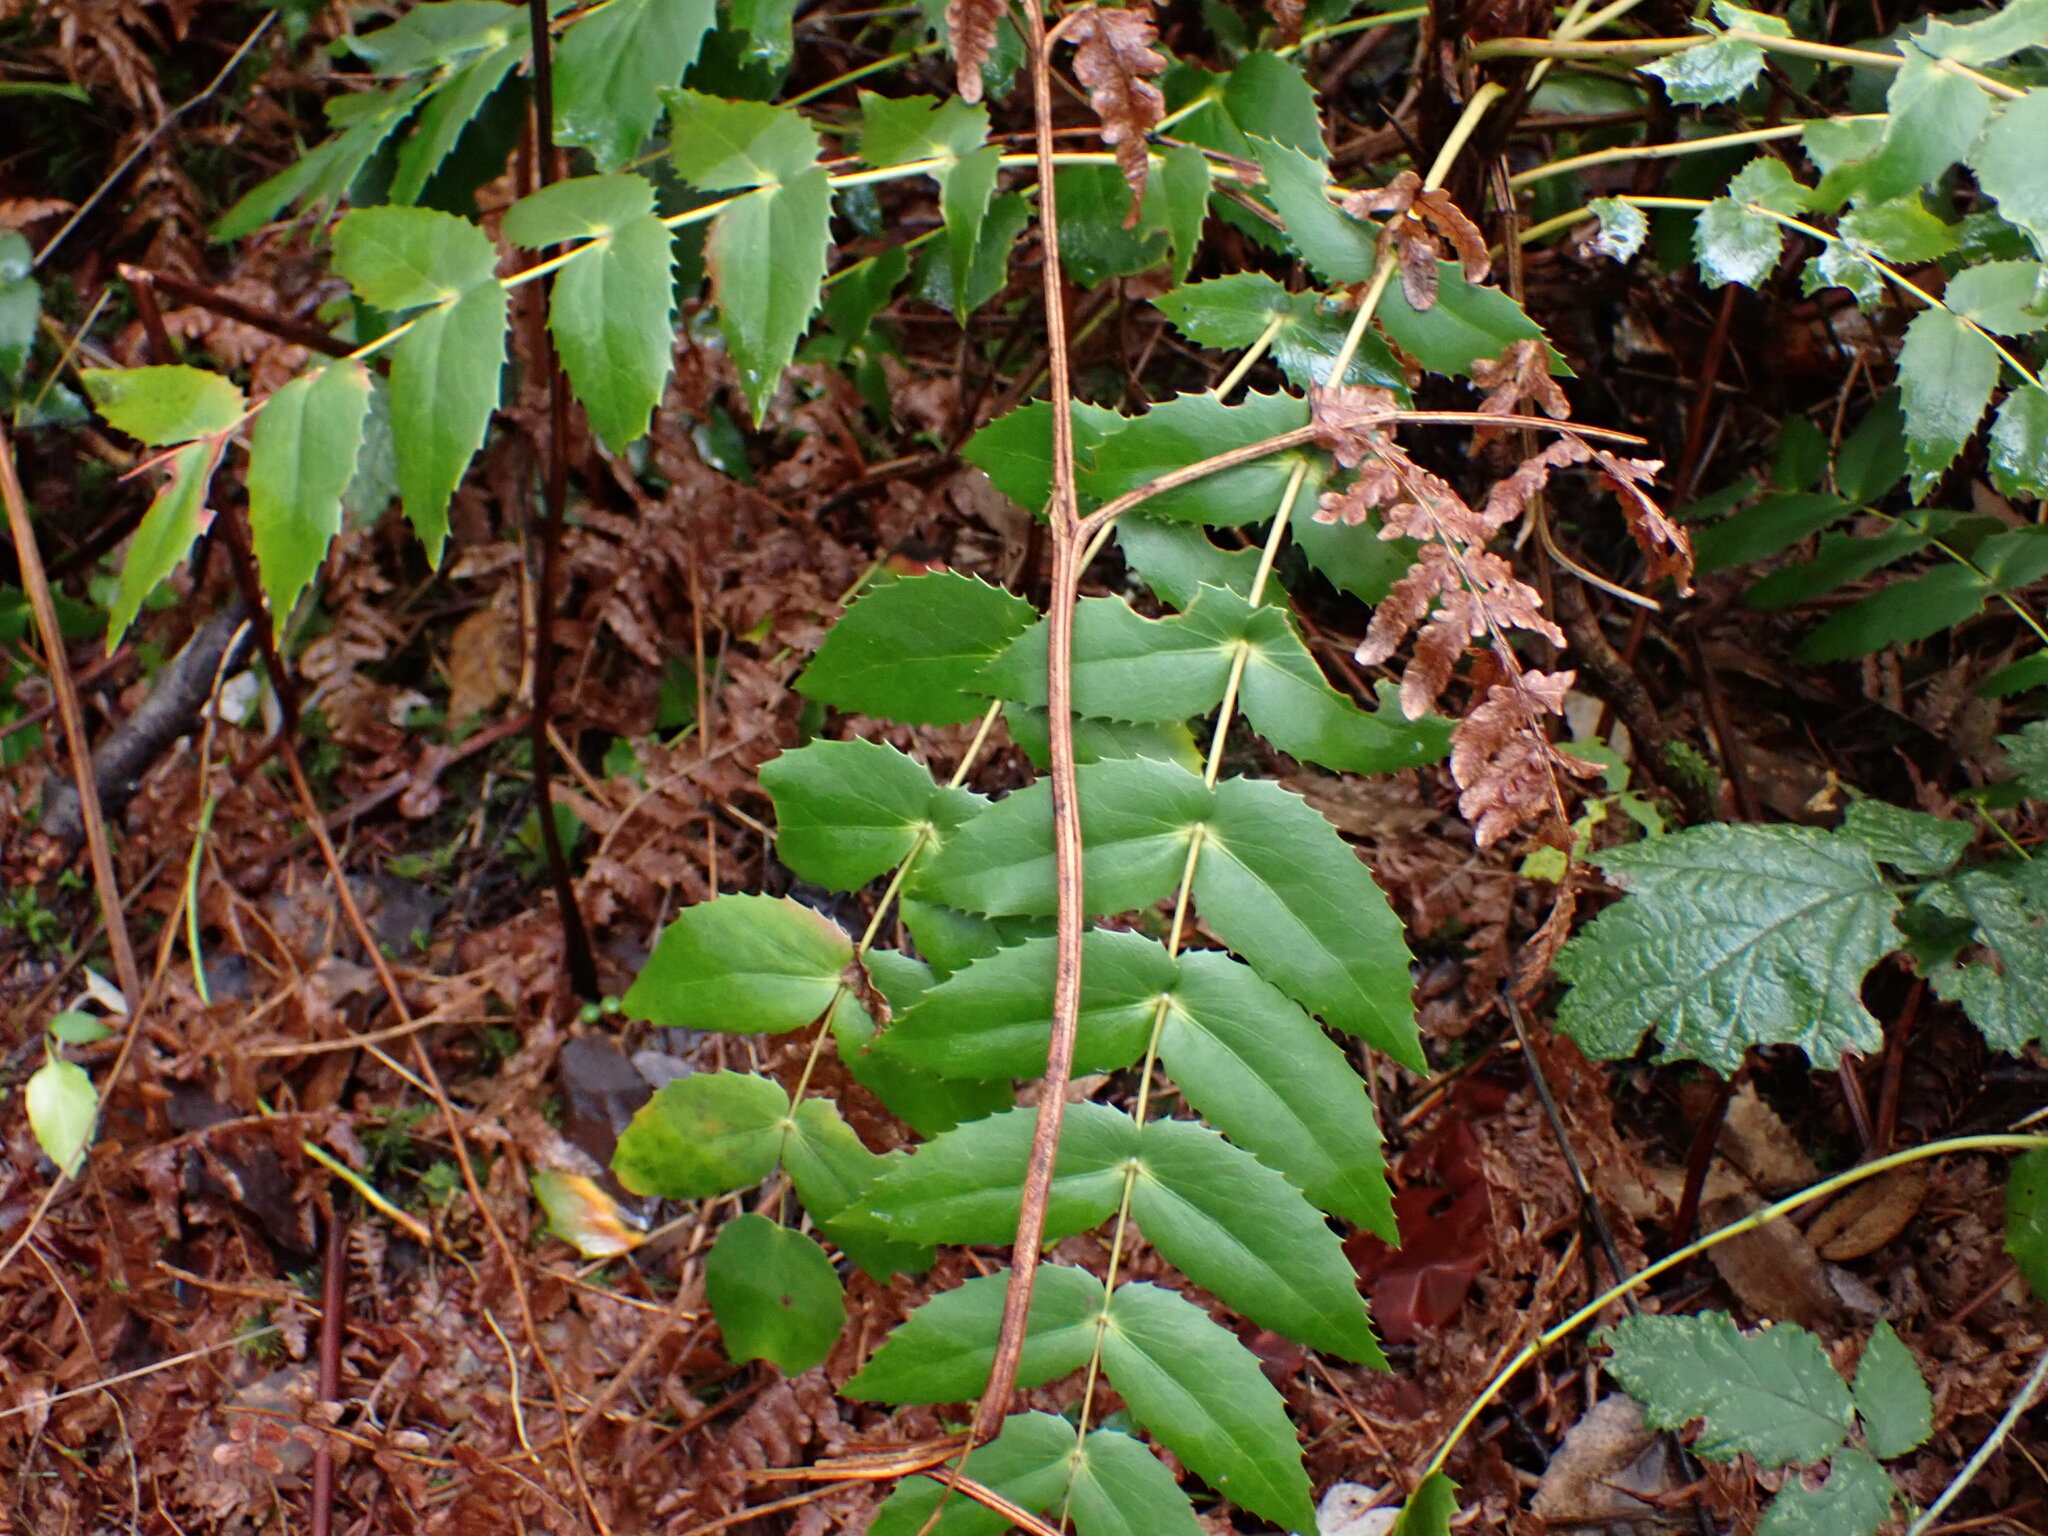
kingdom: Plantae
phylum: Tracheophyta
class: Magnoliopsida
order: Ranunculales
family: Berberidaceae
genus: Mahonia
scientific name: Mahonia nervosa
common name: Cascade oregon-grape
